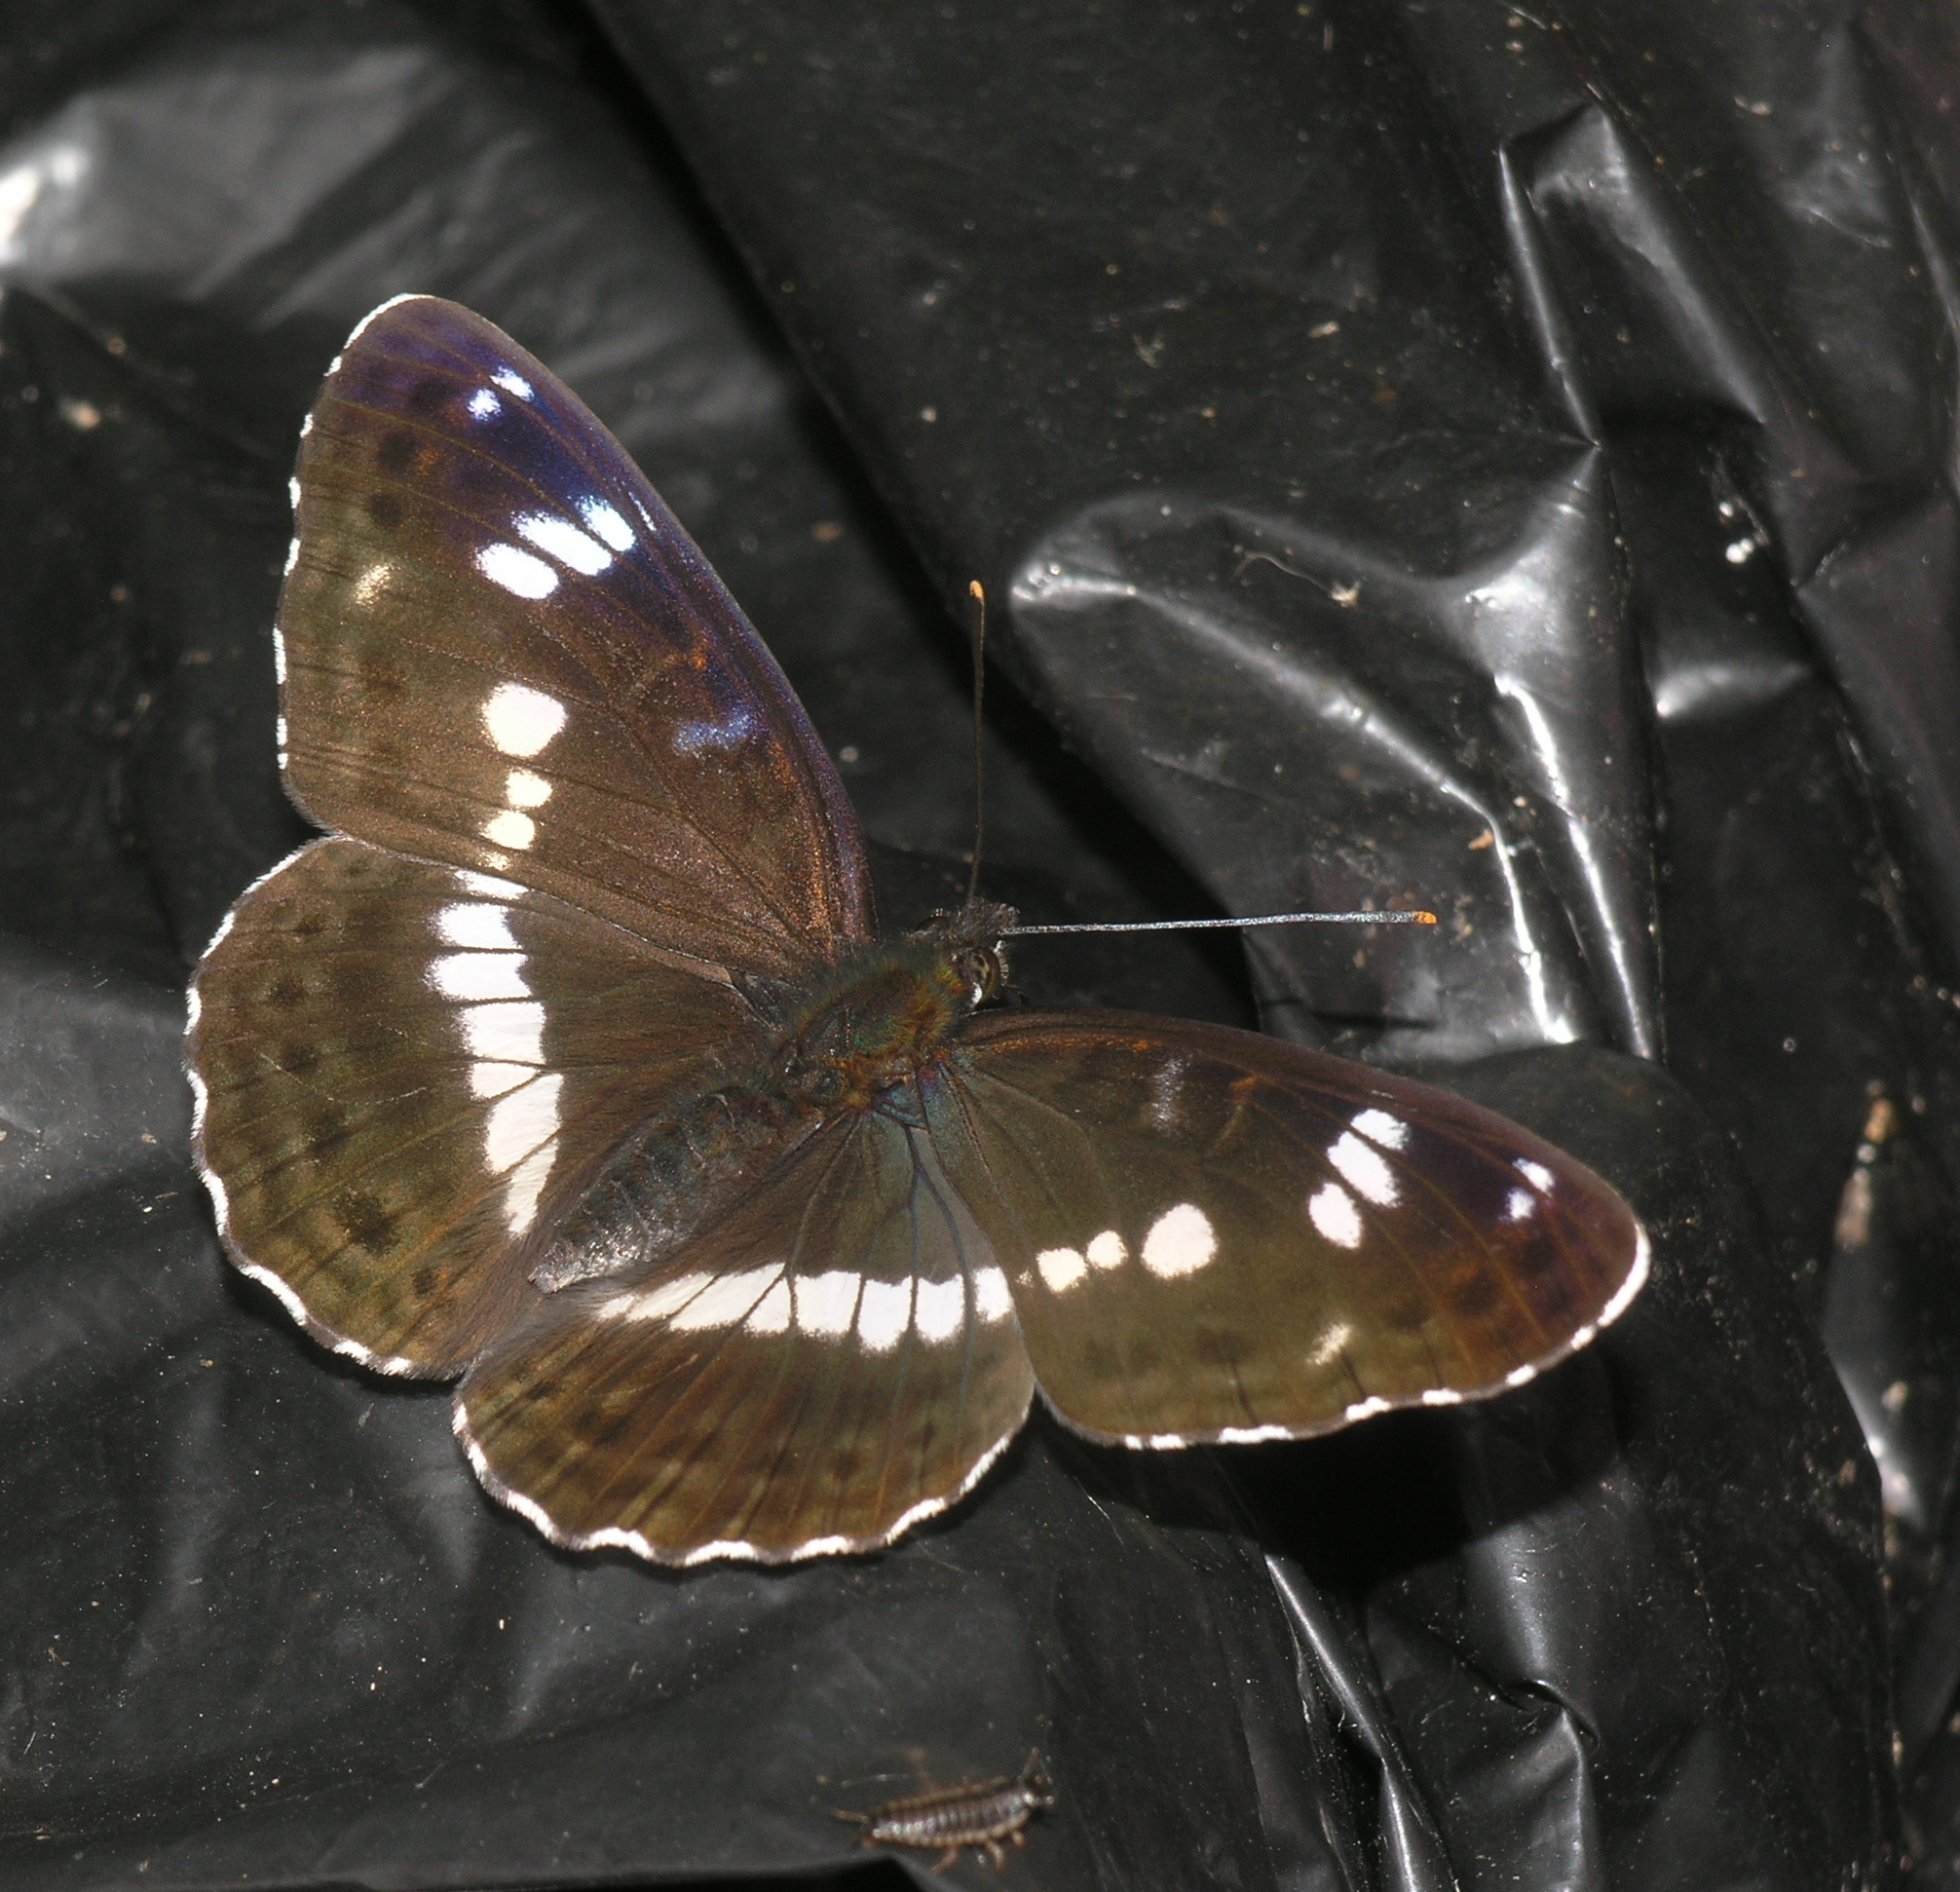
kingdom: Animalia
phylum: Arthropoda
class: Insecta
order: Lepidoptera
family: Nymphalidae
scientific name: Nymphalidae
